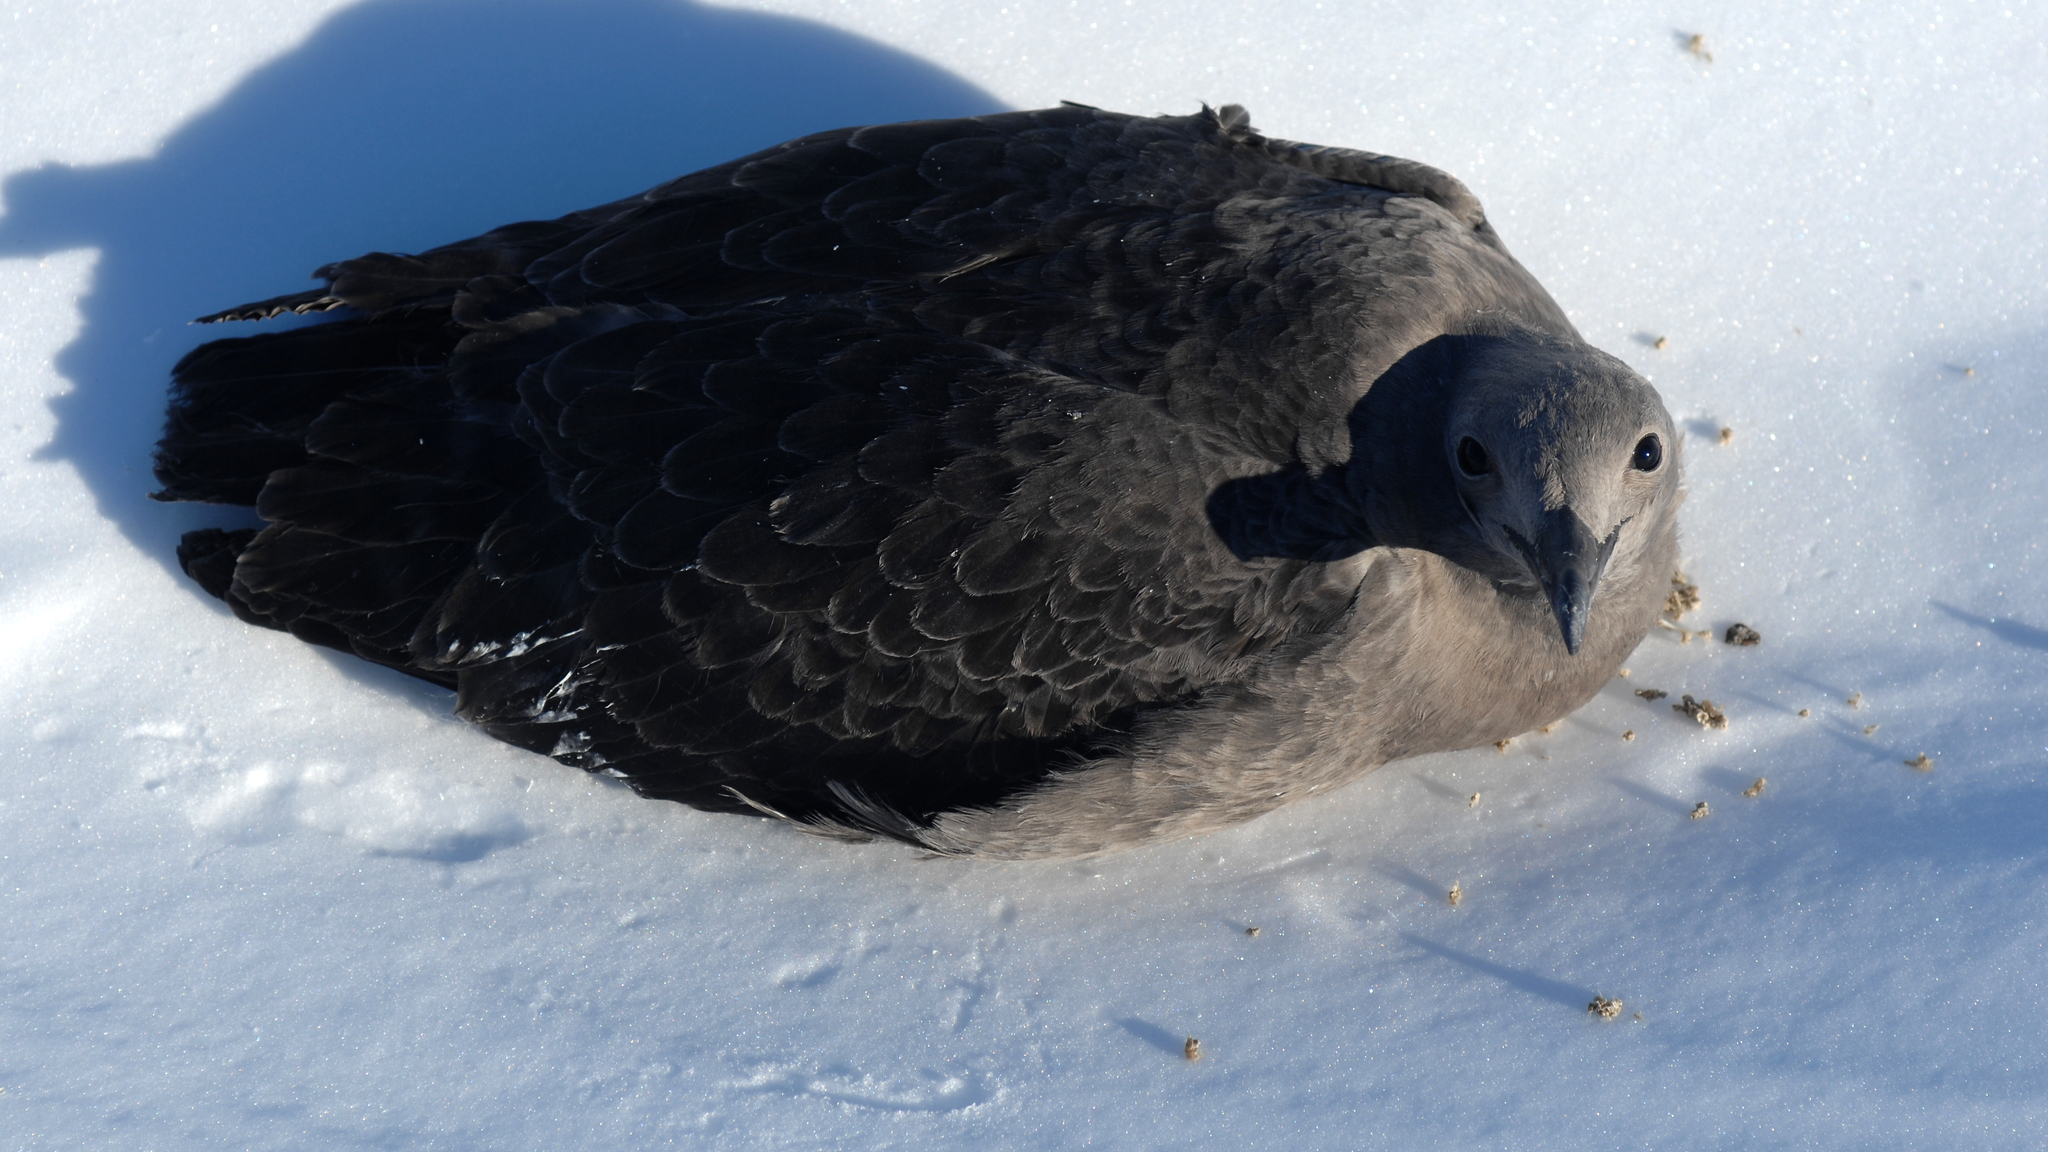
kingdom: Animalia
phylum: Chordata
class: Aves
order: Charadriiformes
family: Stercorariidae
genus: Stercorarius
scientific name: Stercorarius maccormicki
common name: South polar skua
